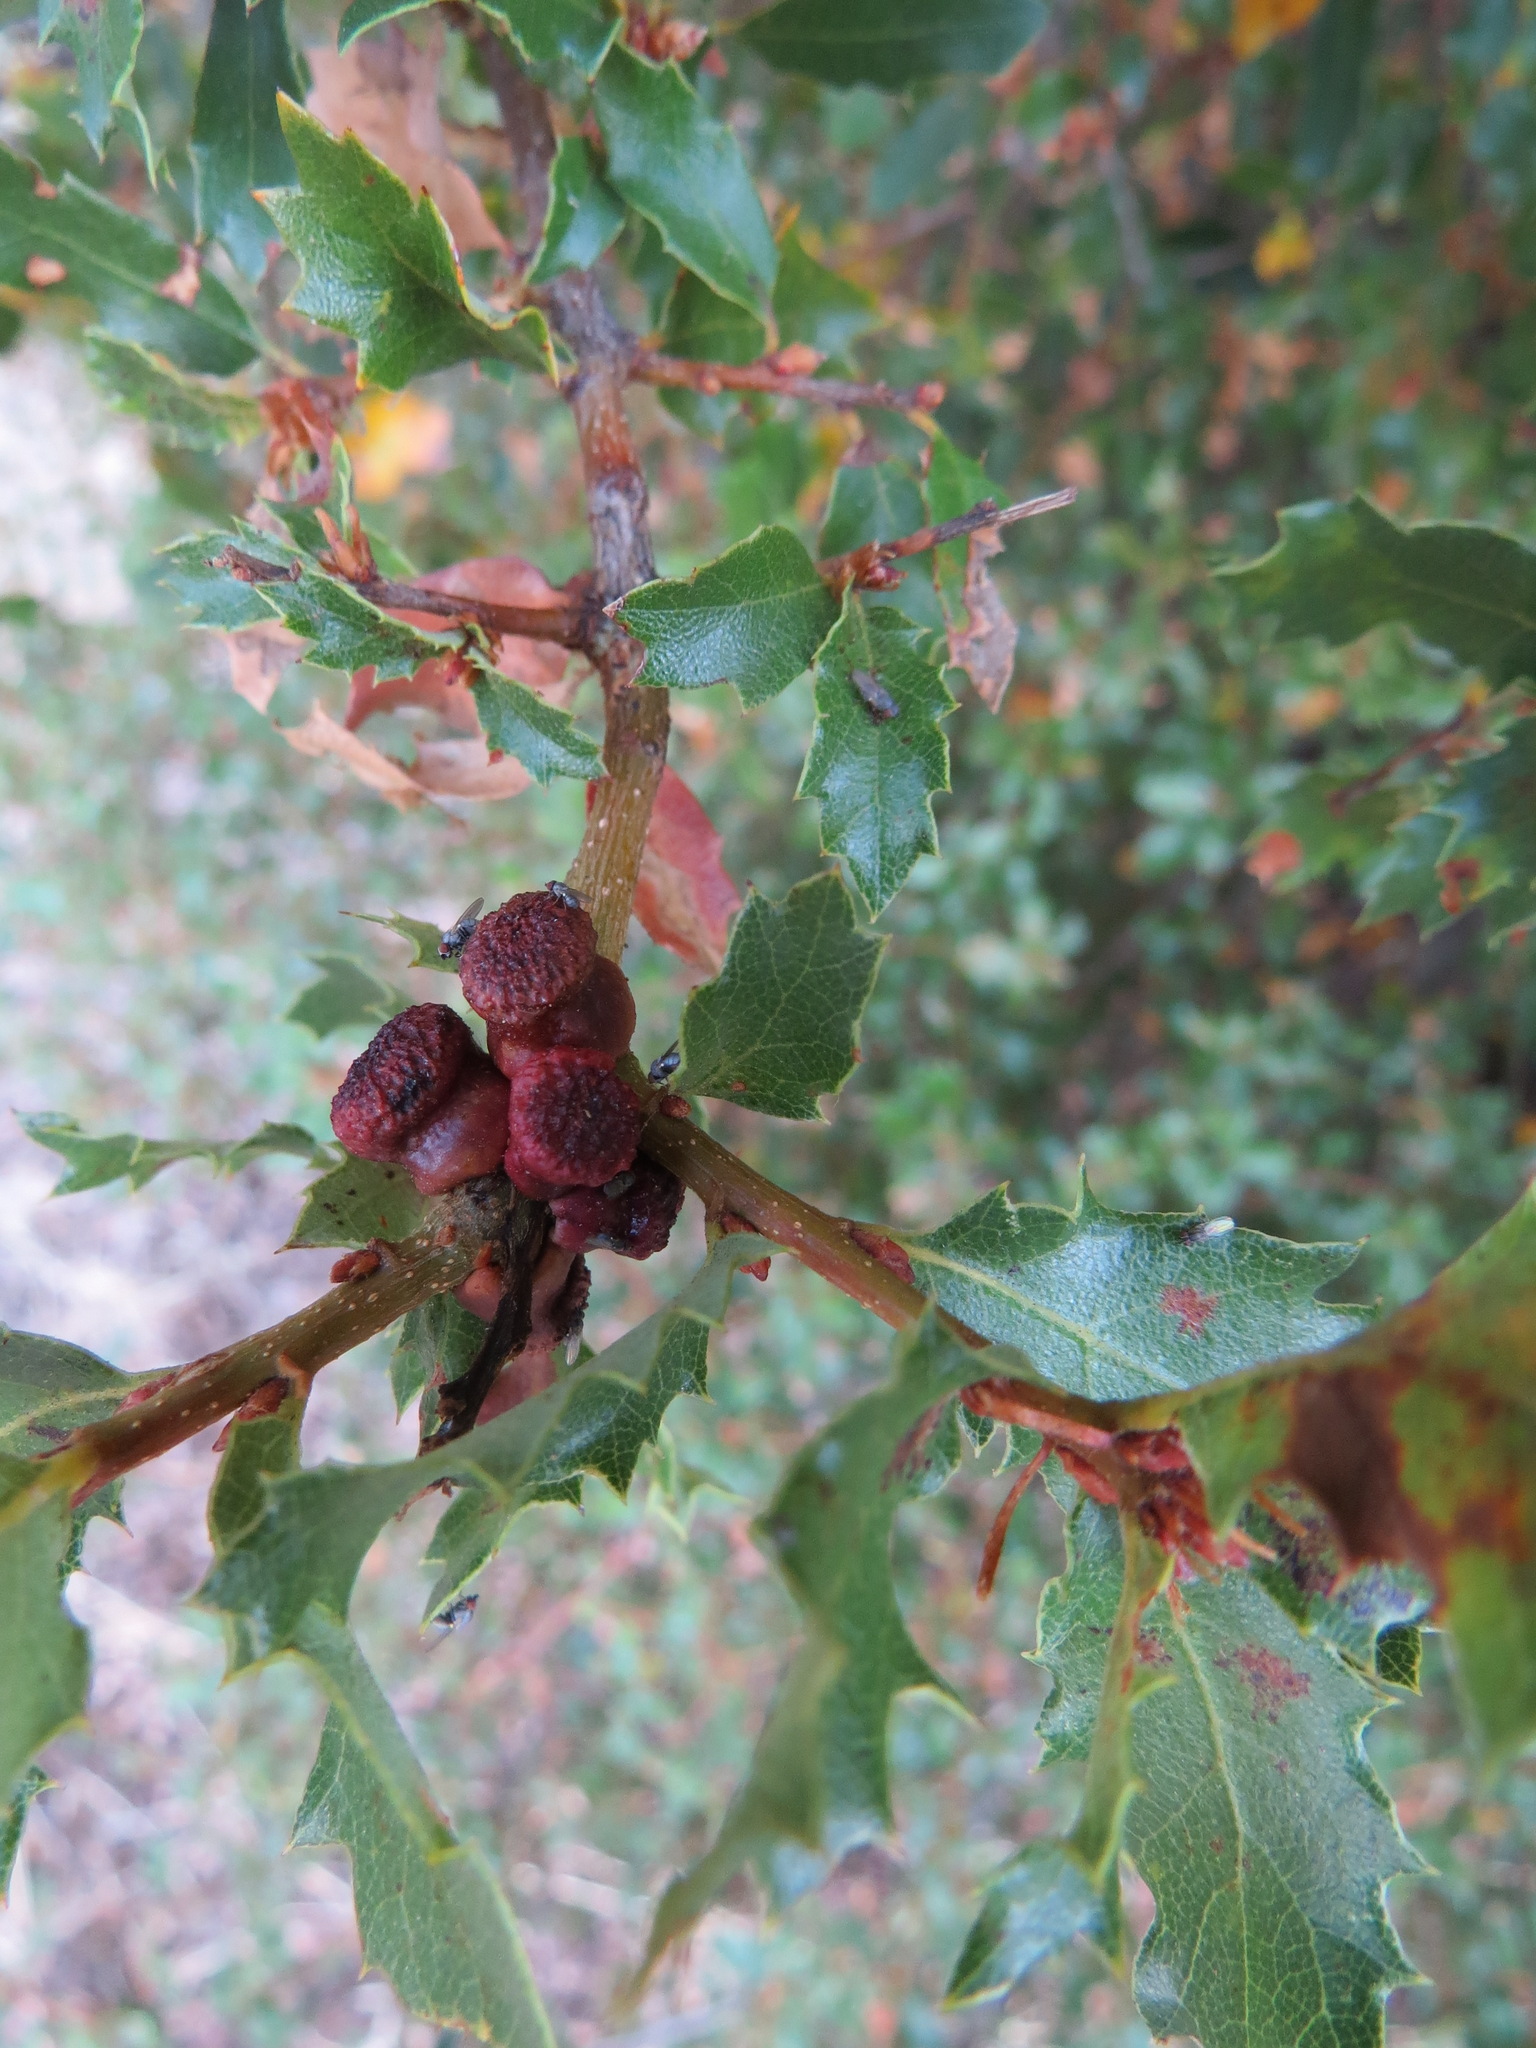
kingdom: Animalia
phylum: Arthropoda
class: Insecta
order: Hymenoptera
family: Cynipidae
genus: Disholcaspis
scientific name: Disholcaspis prehensa
